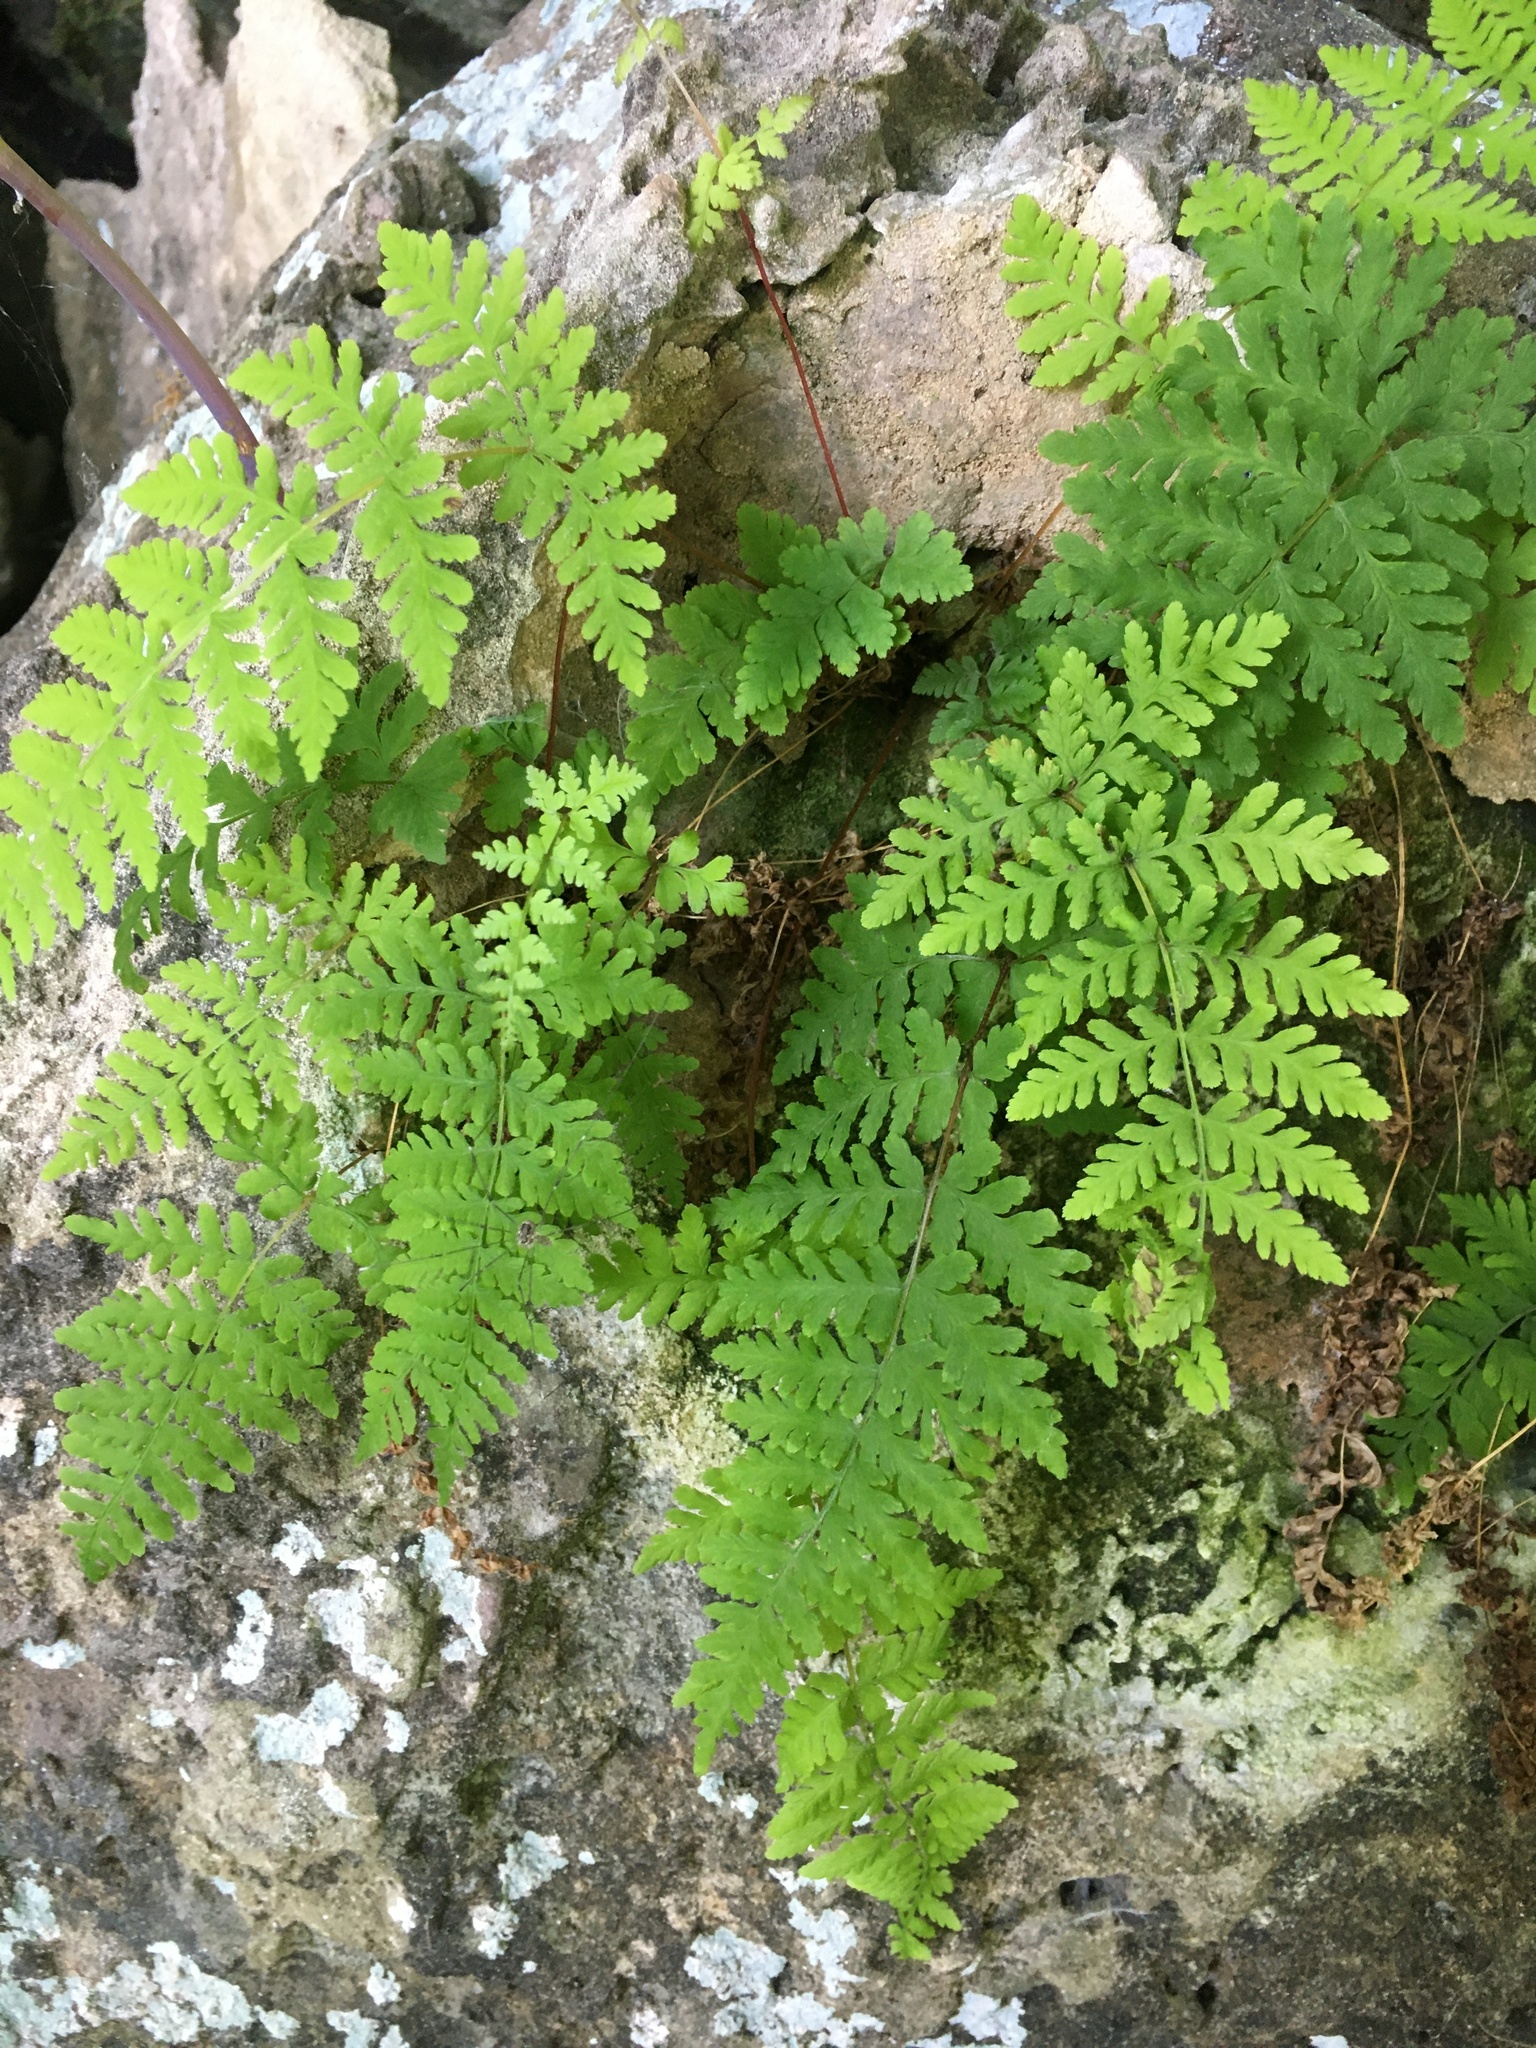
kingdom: Plantae
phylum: Tracheophyta
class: Polypodiopsida
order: Polypodiales
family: Cystopteridaceae
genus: Cystopteris
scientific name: Cystopteris bulbifera
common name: Bulblet bladder fern
